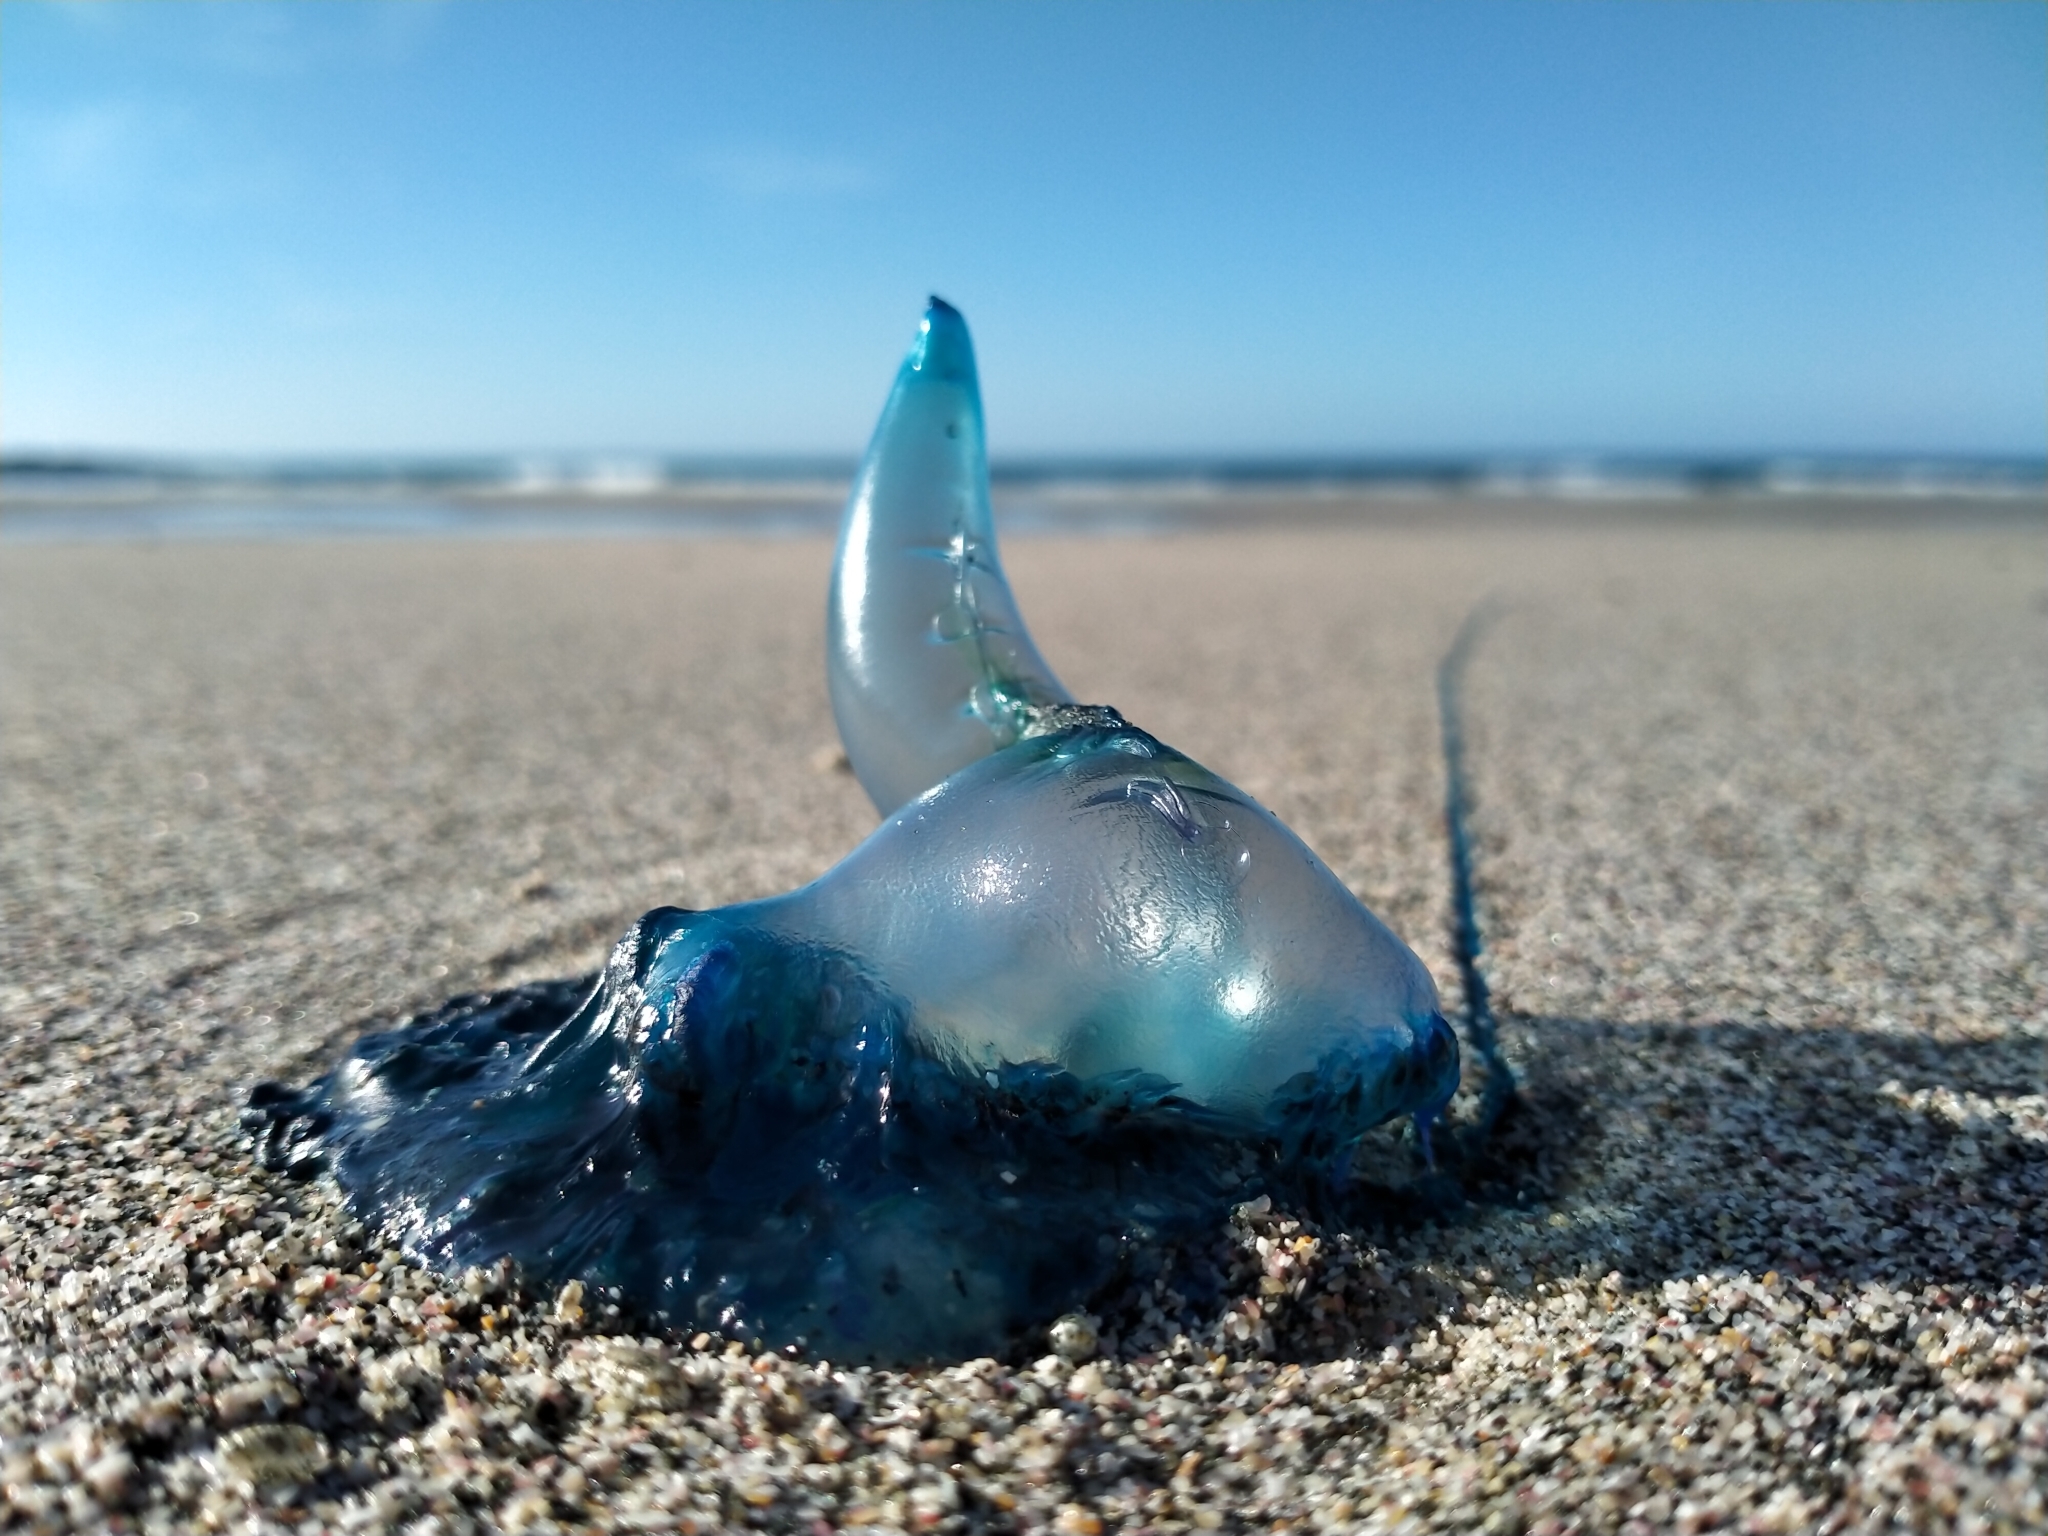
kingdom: Animalia
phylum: Cnidaria
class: Hydrozoa
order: Siphonophorae
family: Physaliidae
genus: Physalia
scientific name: Physalia physalis
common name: Portuguese man-of-war
